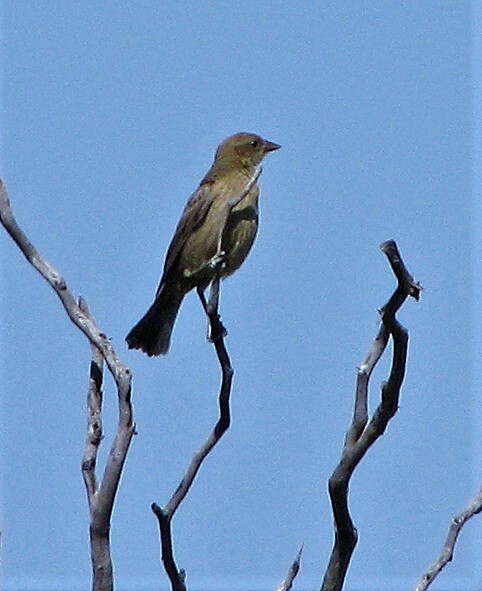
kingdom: Animalia
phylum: Chordata
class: Aves
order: Passeriformes
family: Icteridae
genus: Molothrus
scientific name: Molothrus bonariensis
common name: Shiny cowbird
